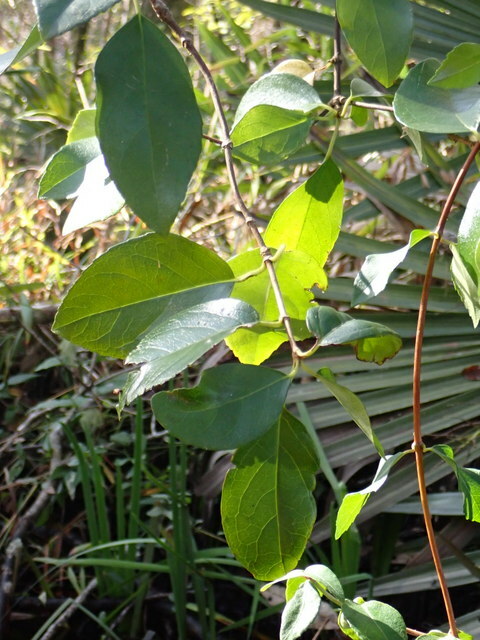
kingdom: Plantae
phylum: Tracheophyta
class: Magnoliopsida
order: Cornales
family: Hydrangeaceae
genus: Hydrangea
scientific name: Hydrangea barbara
